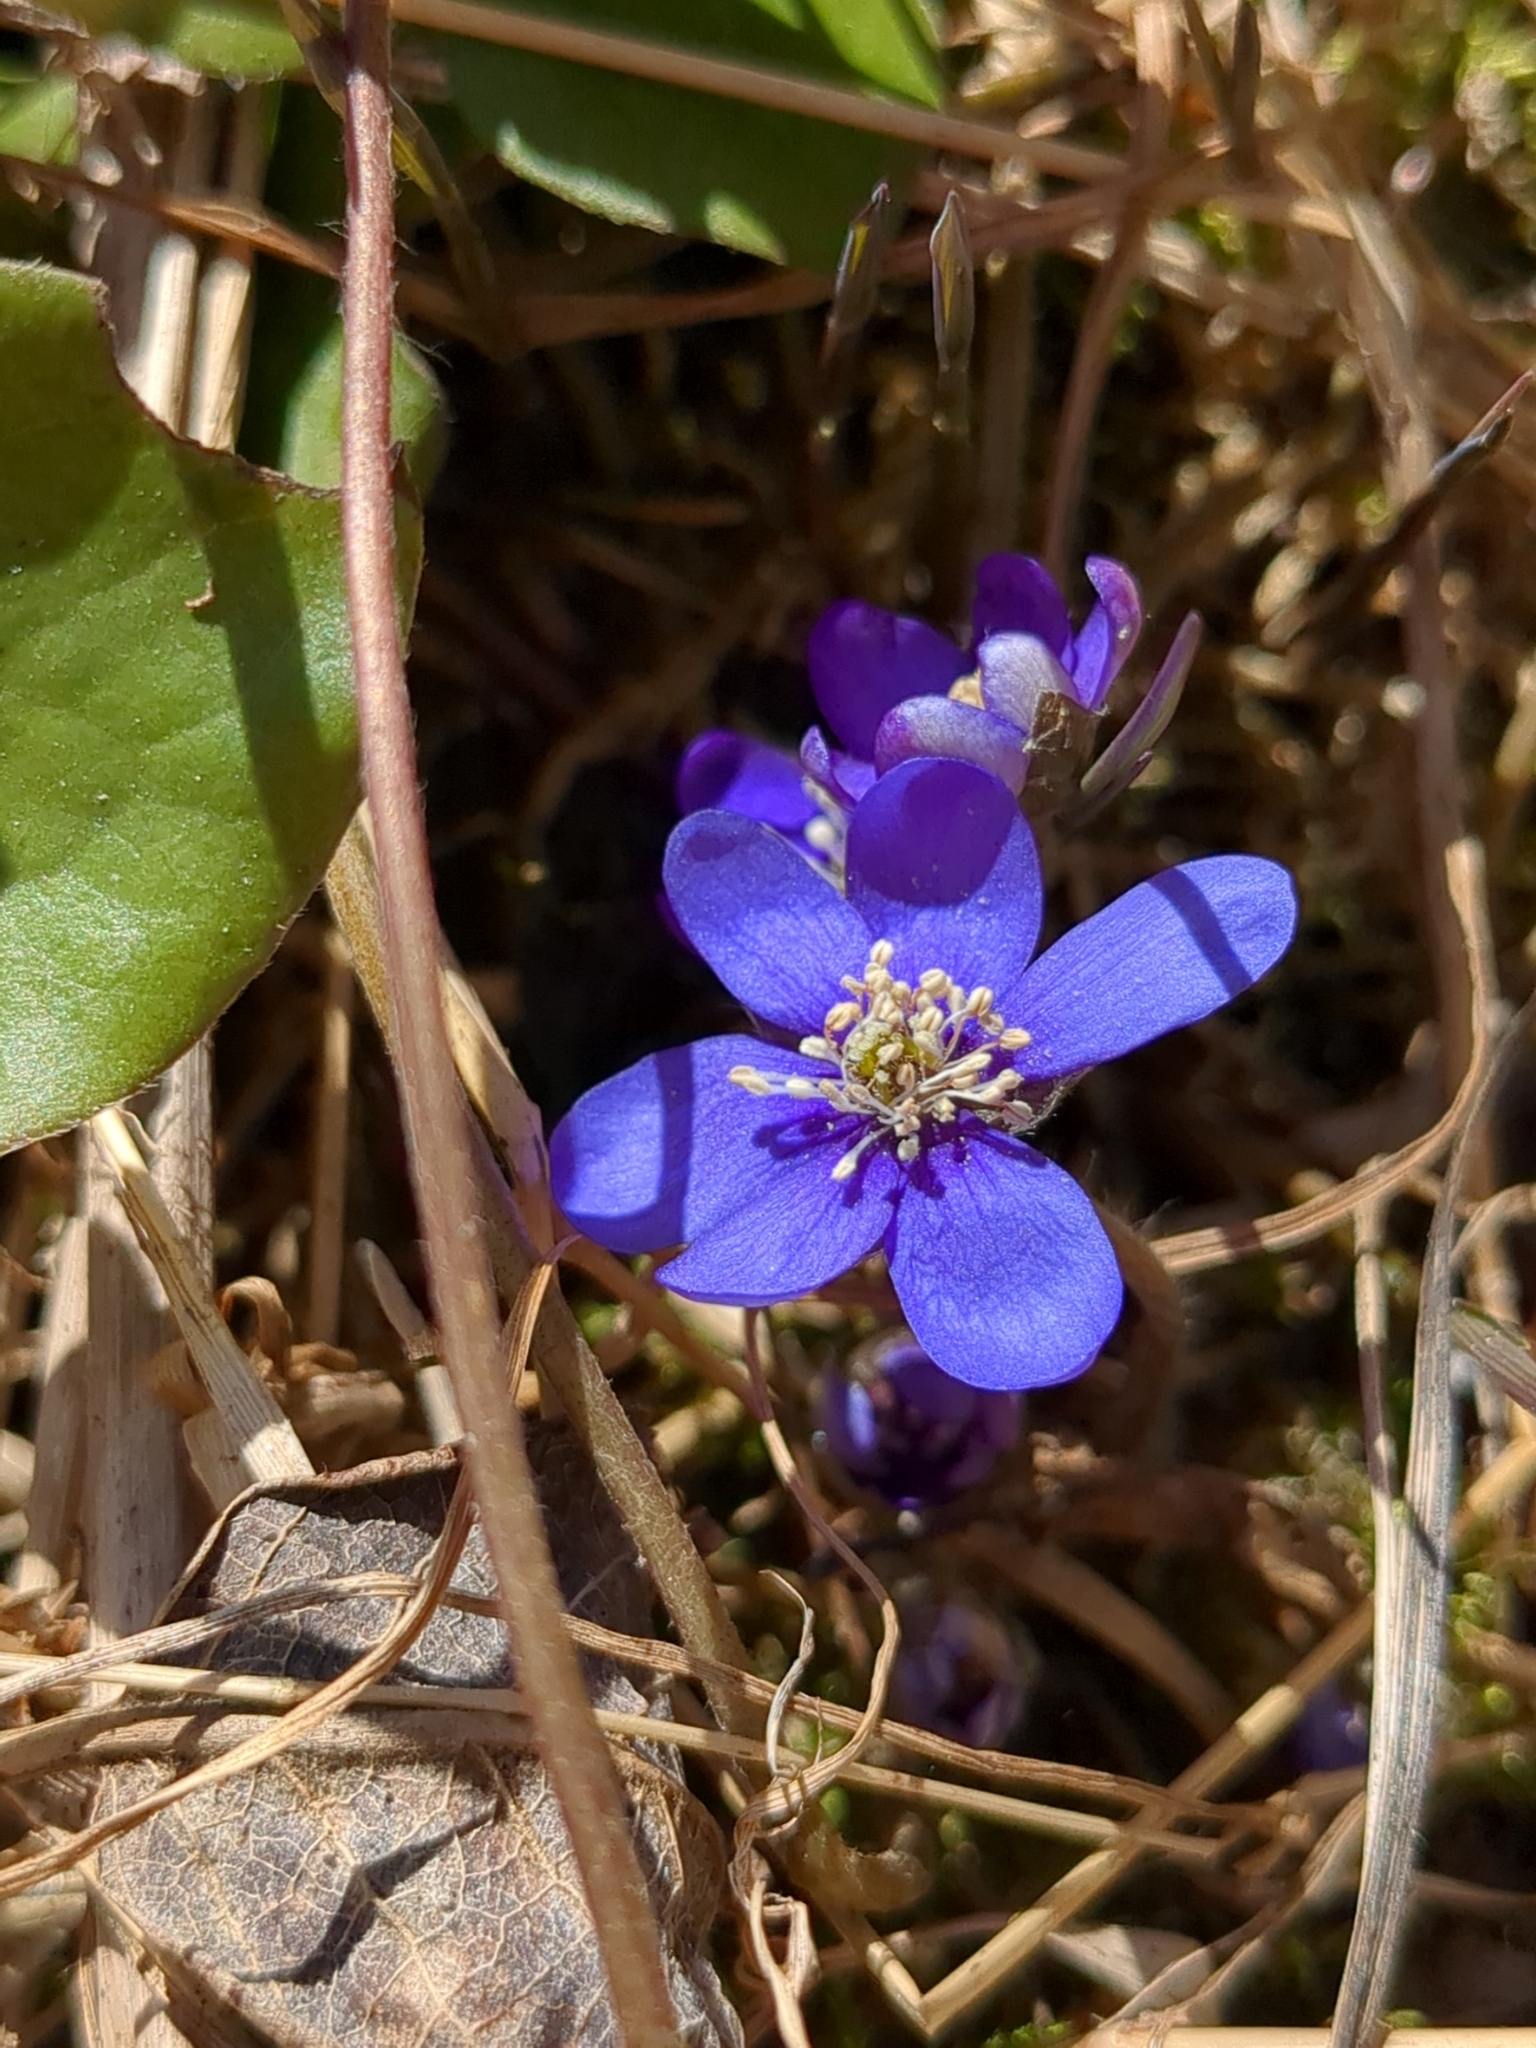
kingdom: Plantae
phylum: Tracheophyta
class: Magnoliopsida
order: Ranunculales
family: Ranunculaceae
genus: Hepatica
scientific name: Hepatica nobilis
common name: Liverleaf
